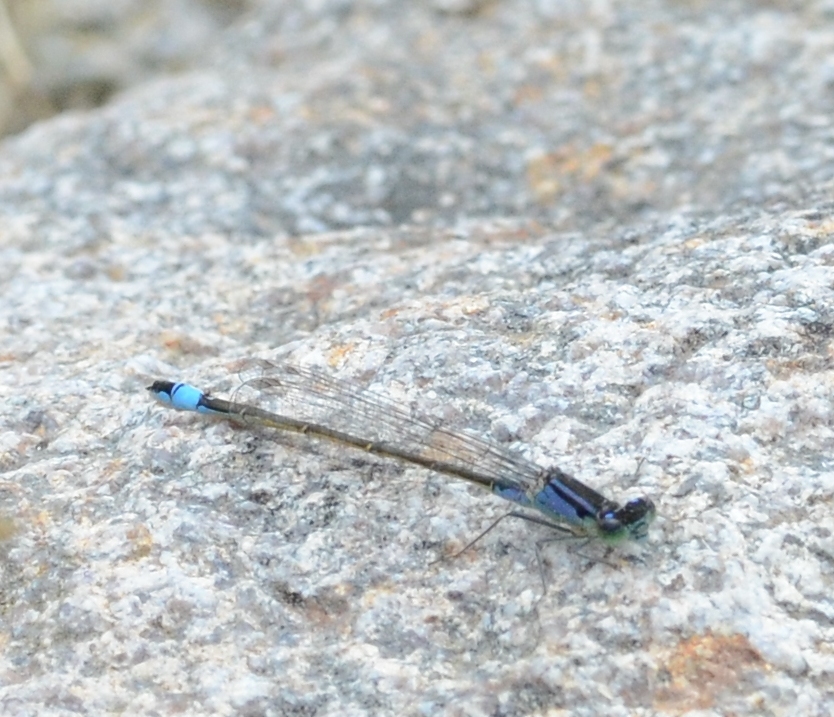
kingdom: Animalia
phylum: Arthropoda
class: Insecta
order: Odonata
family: Coenagrionidae
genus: Ischnura
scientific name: Ischnura elegans
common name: Blue-tailed damselfly
